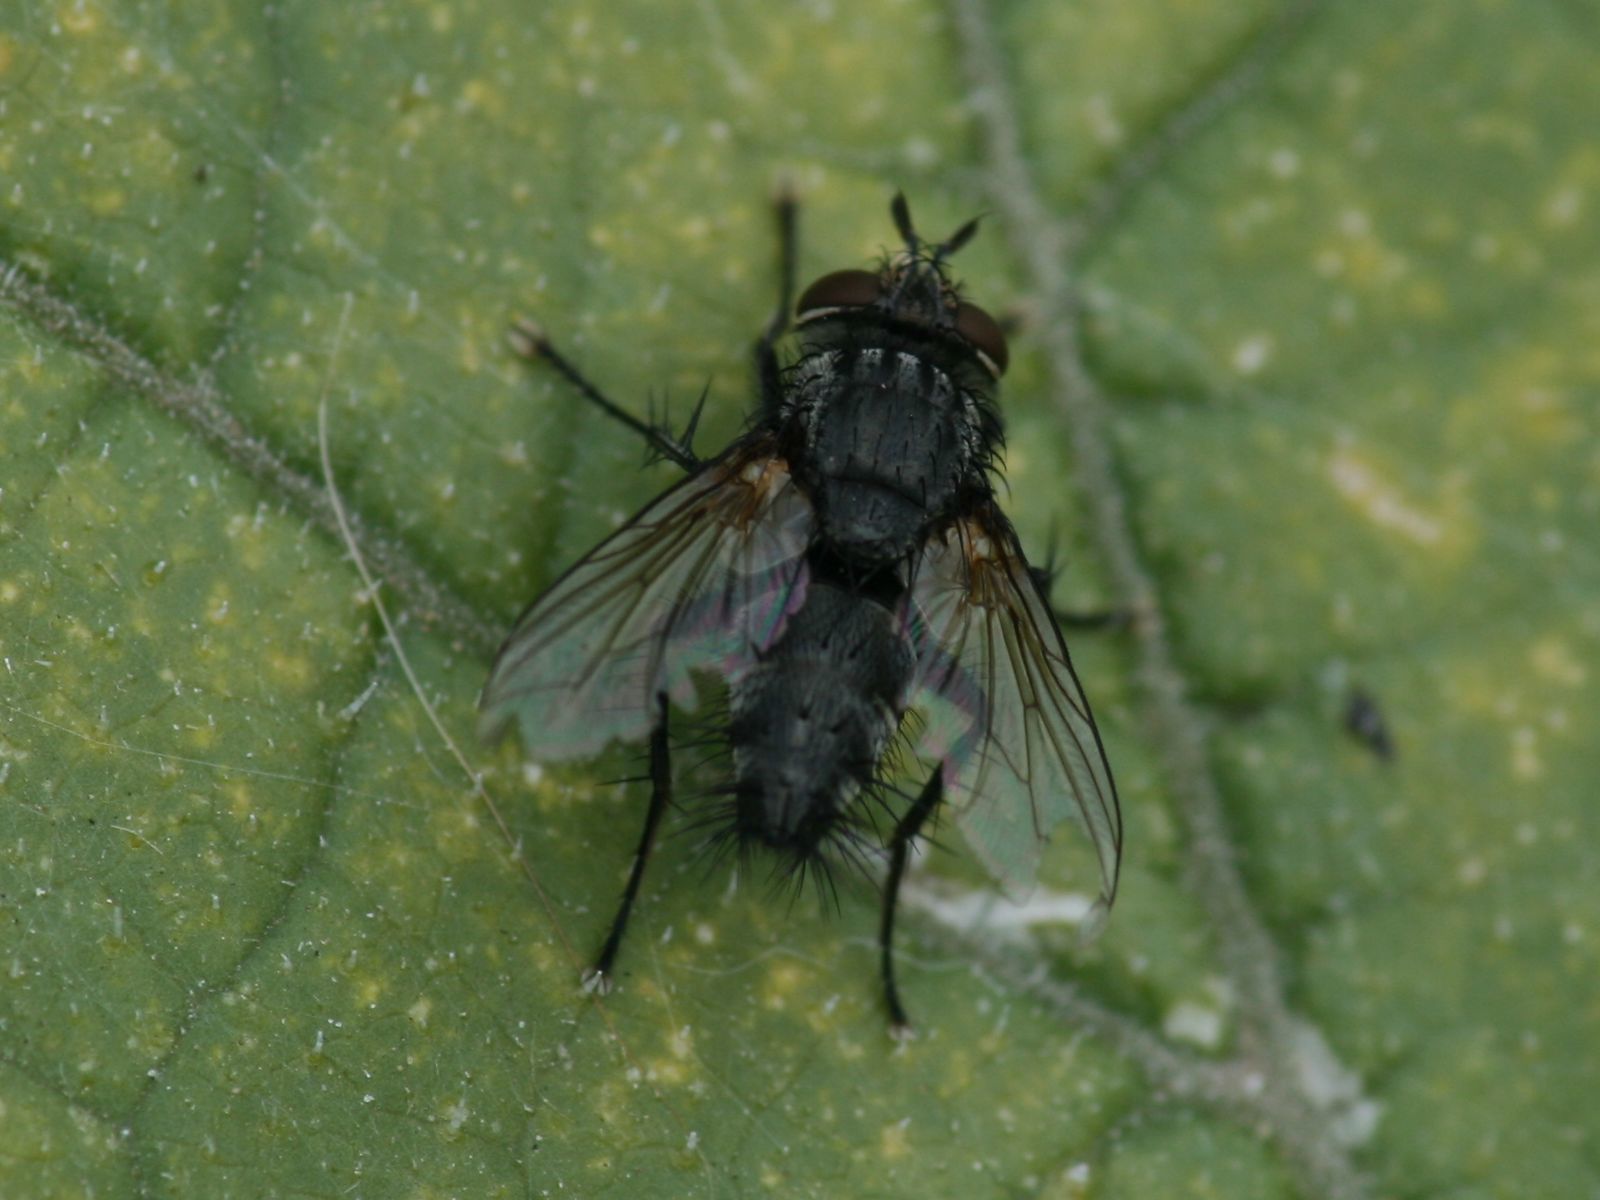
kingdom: Animalia
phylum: Arthropoda
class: Insecta
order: Diptera
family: Tachinidae
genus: Voria
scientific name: Voria ruralis
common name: Parasitic fly
